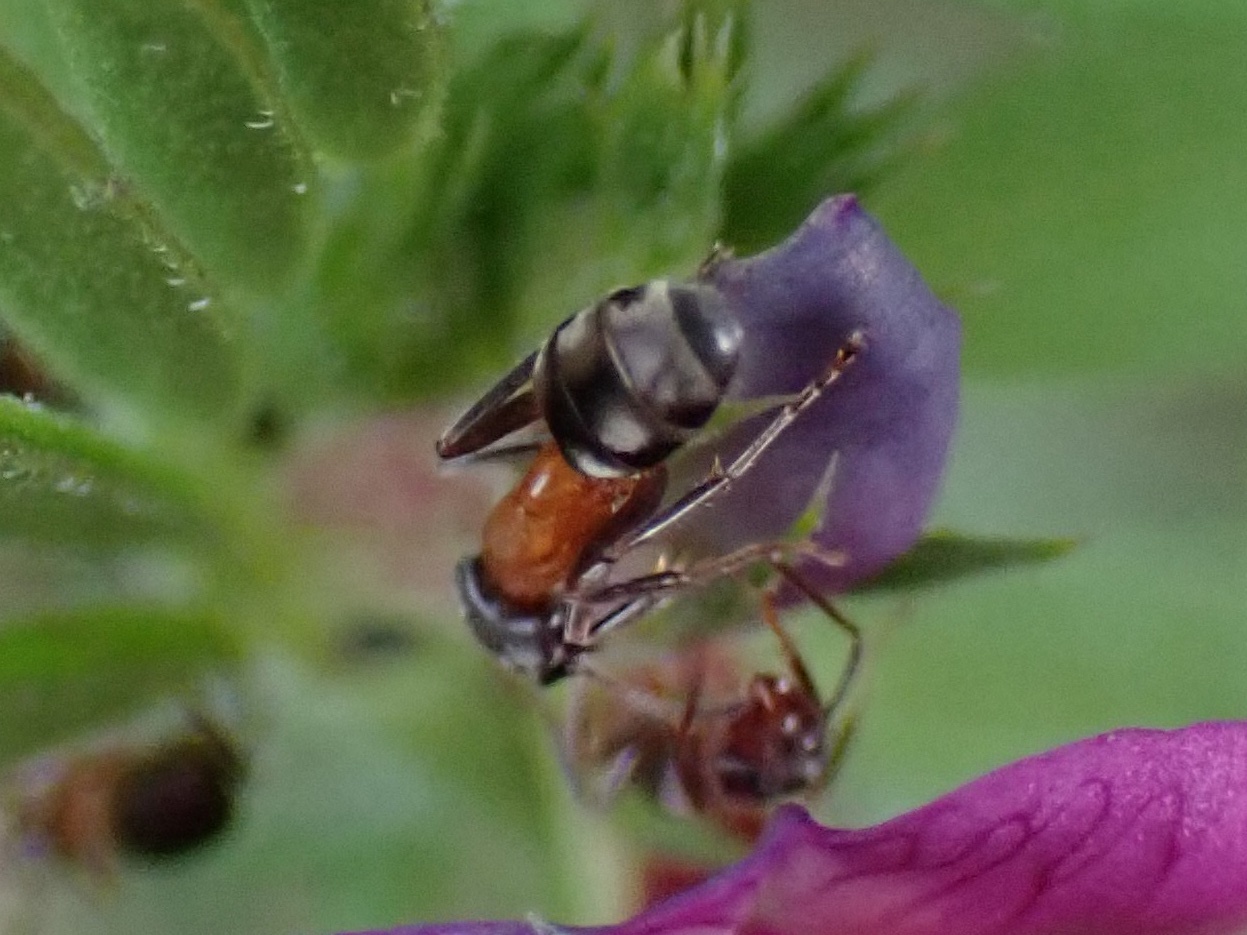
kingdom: Animalia
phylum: Arthropoda
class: Insecta
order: Hymenoptera
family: Formicidae
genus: Liometopum
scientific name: Liometopum occidentale
